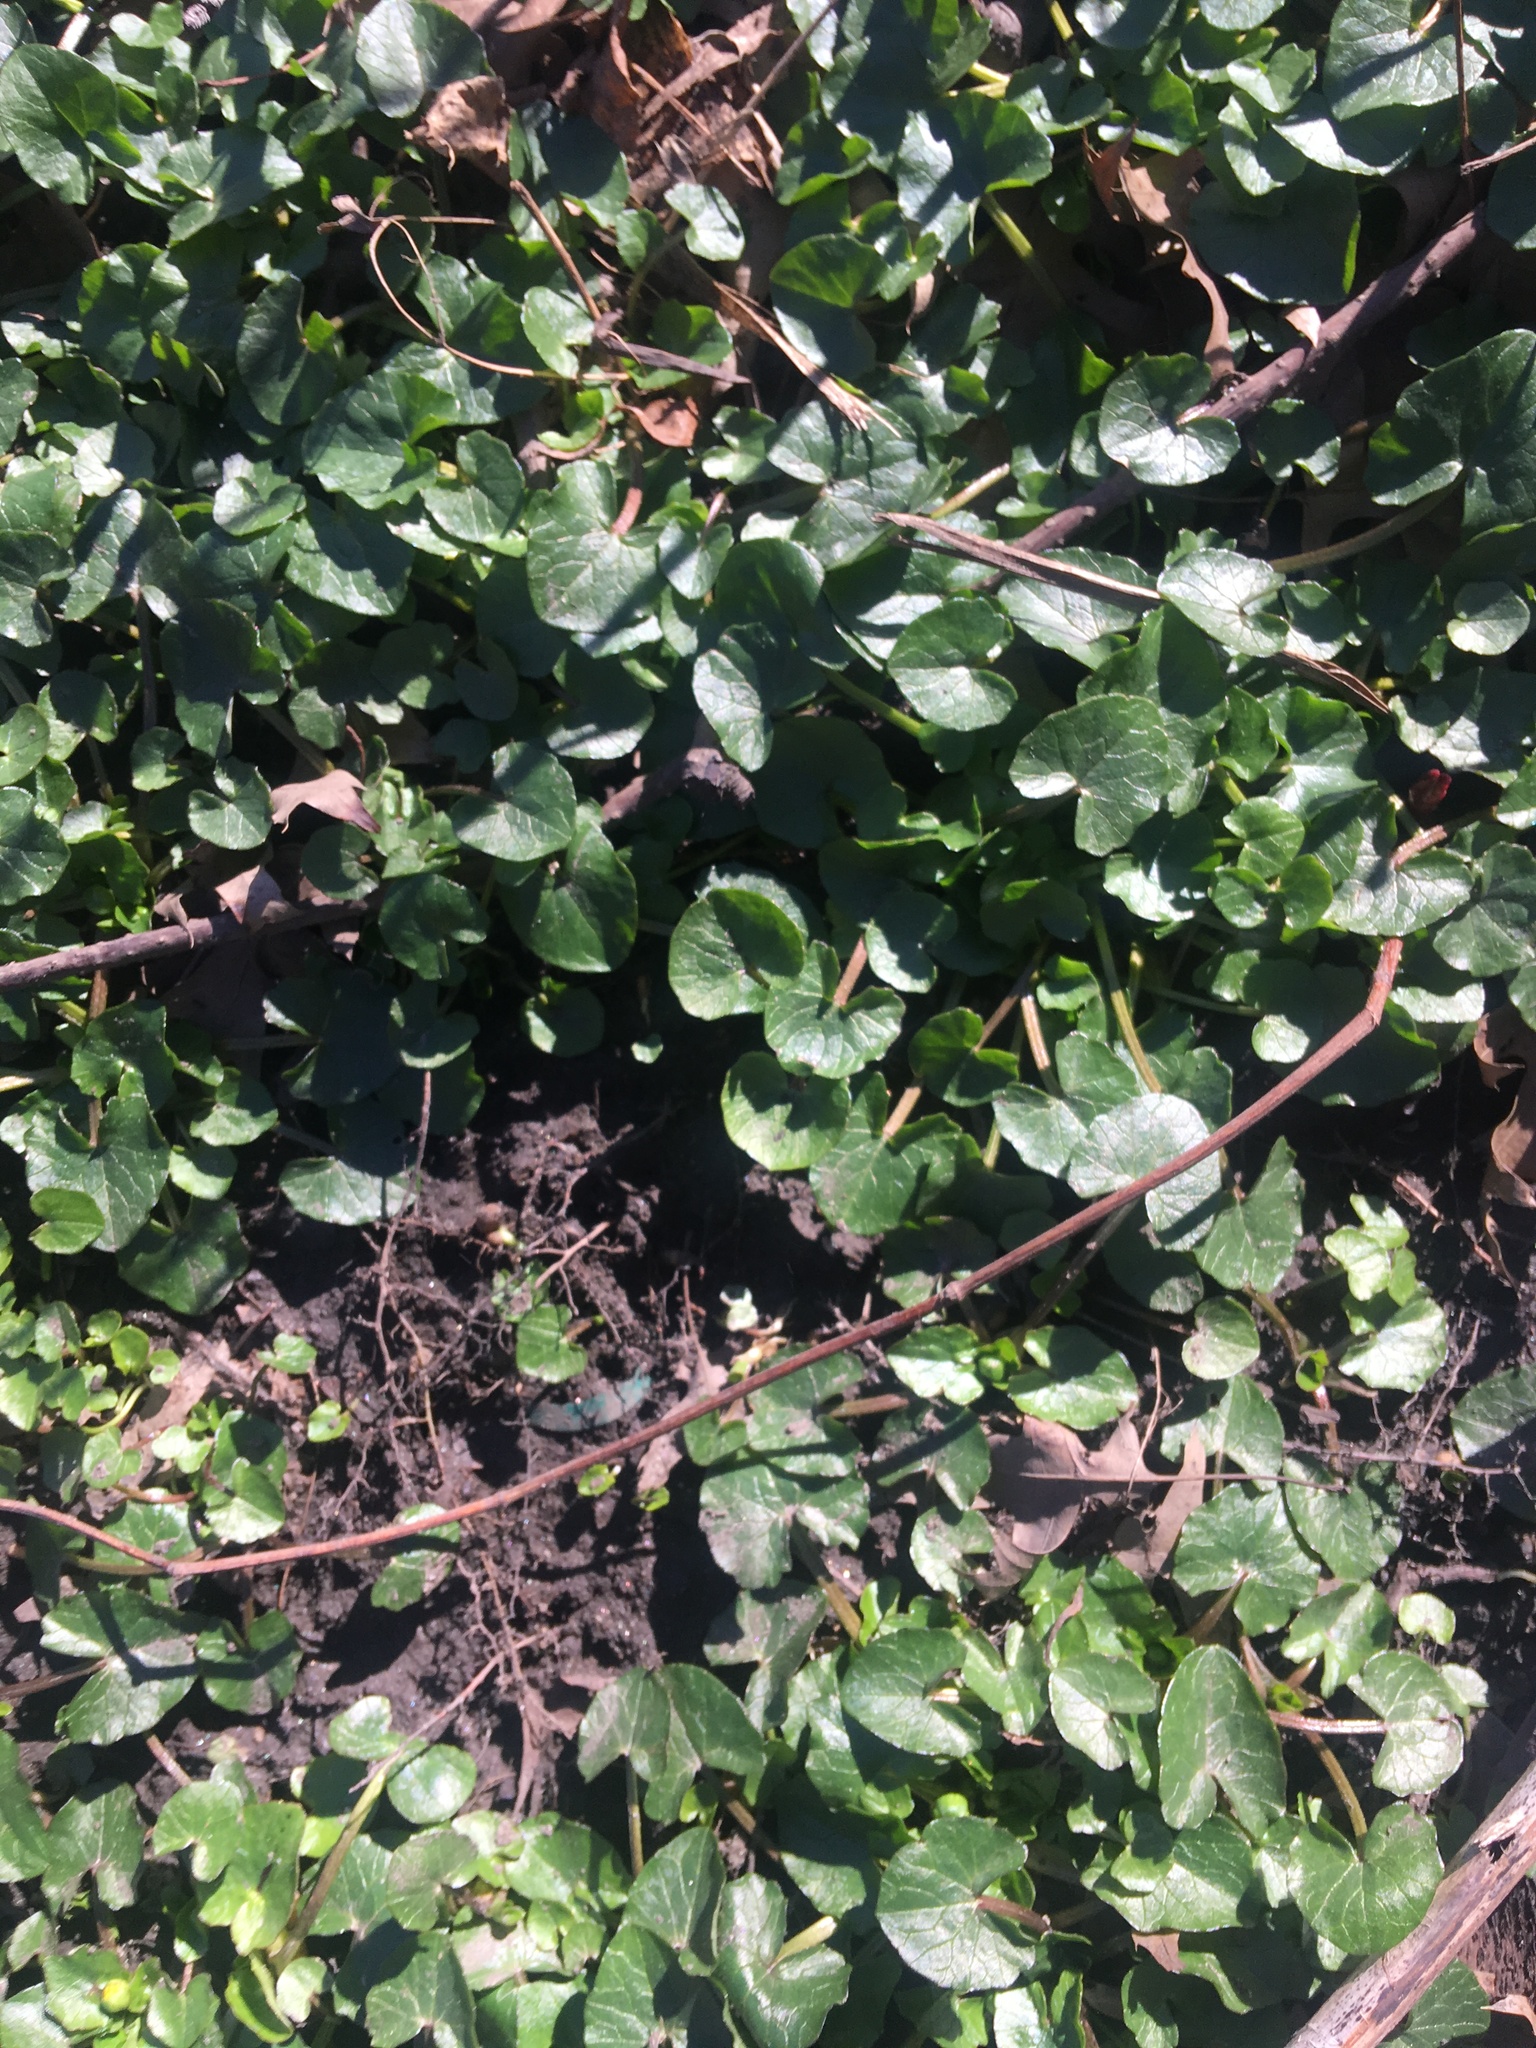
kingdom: Plantae
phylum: Tracheophyta
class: Magnoliopsida
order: Ranunculales
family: Ranunculaceae
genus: Ficaria
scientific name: Ficaria verna
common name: Lesser celandine
